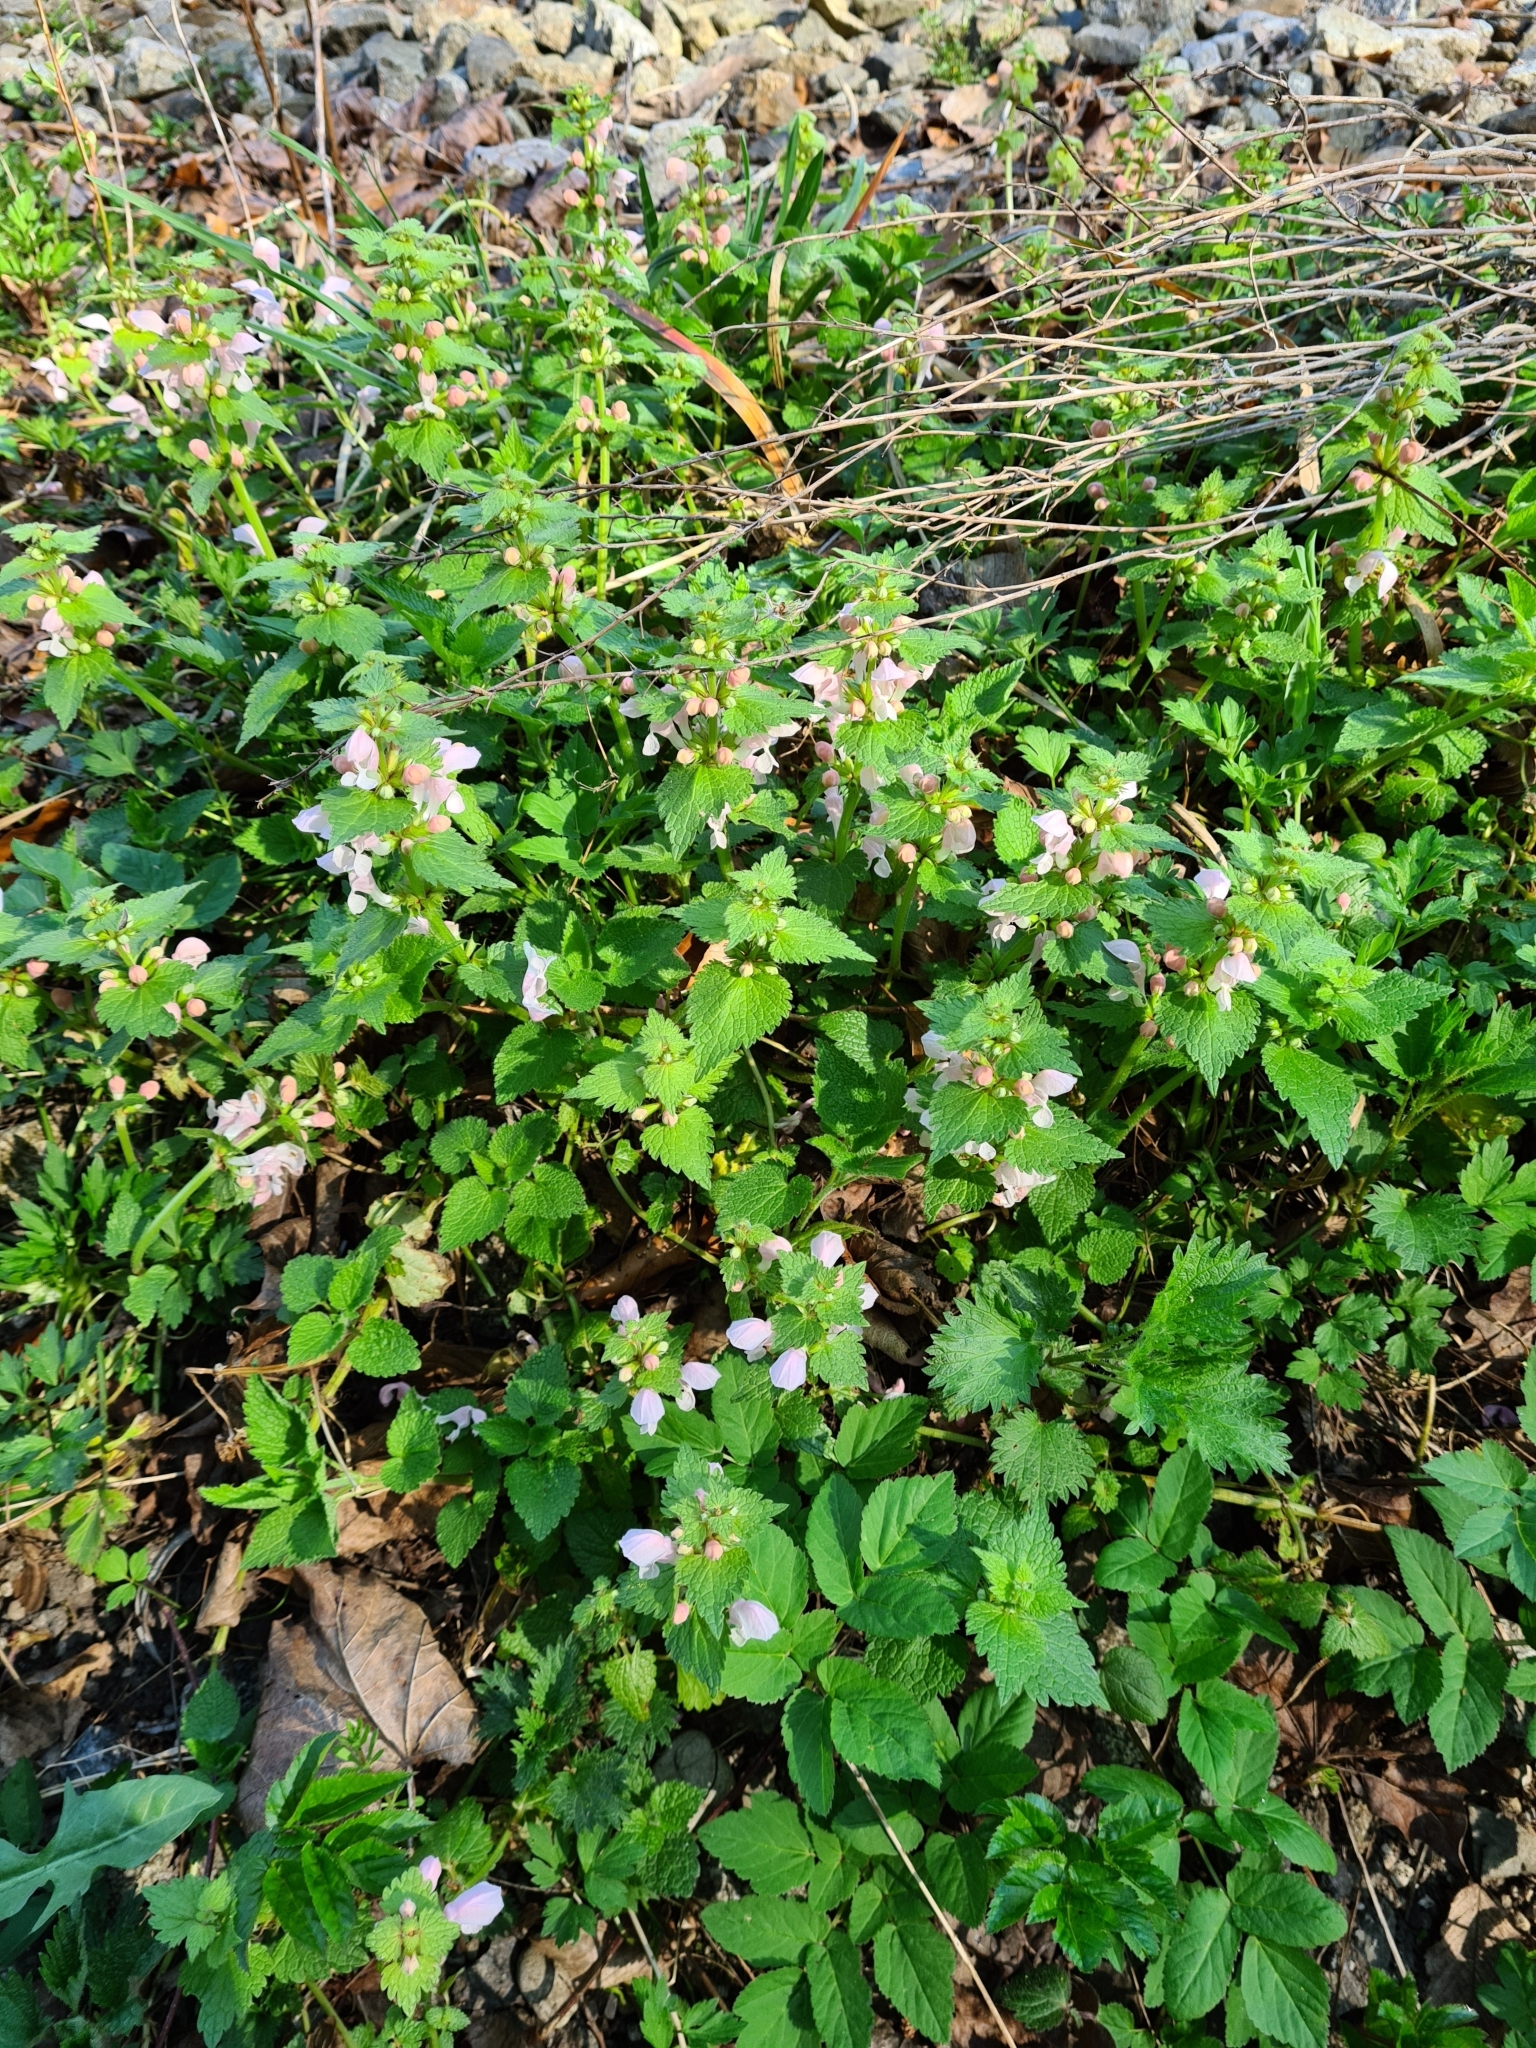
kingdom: Plantae
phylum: Tracheophyta
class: Magnoliopsida
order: Lamiales
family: Lamiaceae
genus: Lamium
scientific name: Lamium maculatum
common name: Spotted dead-nettle
